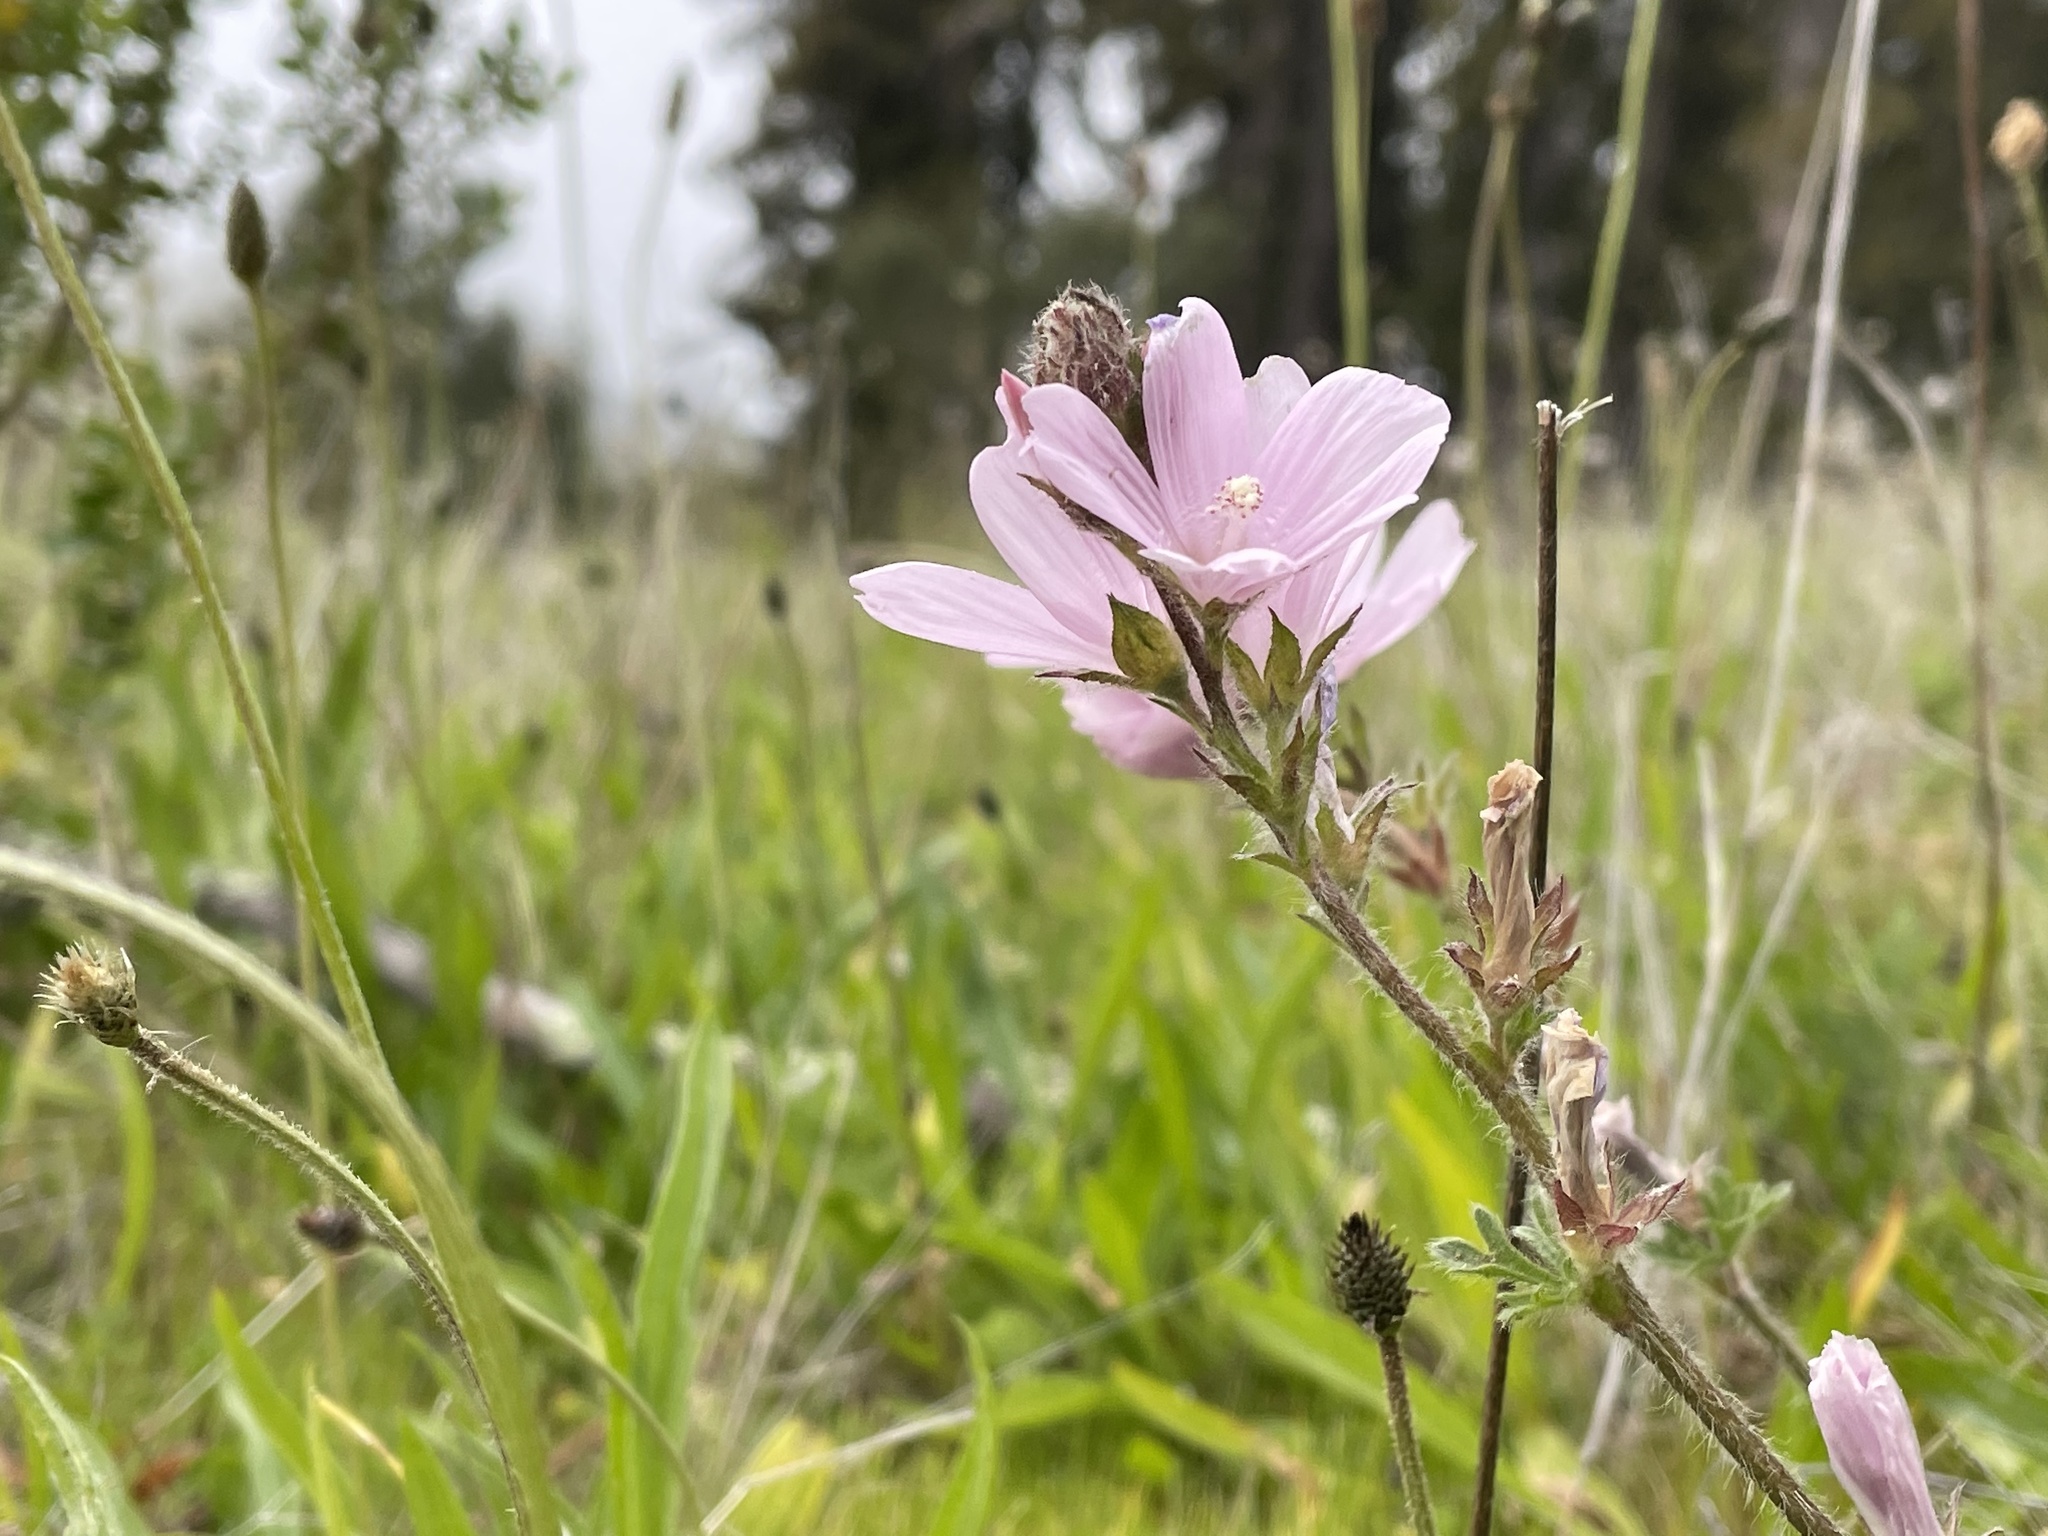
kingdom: Plantae
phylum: Tracheophyta
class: Magnoliopsida
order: Malvales
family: Malvaceae
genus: Sidalcea
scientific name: Sidalcea malviflora
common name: Greek mallow
